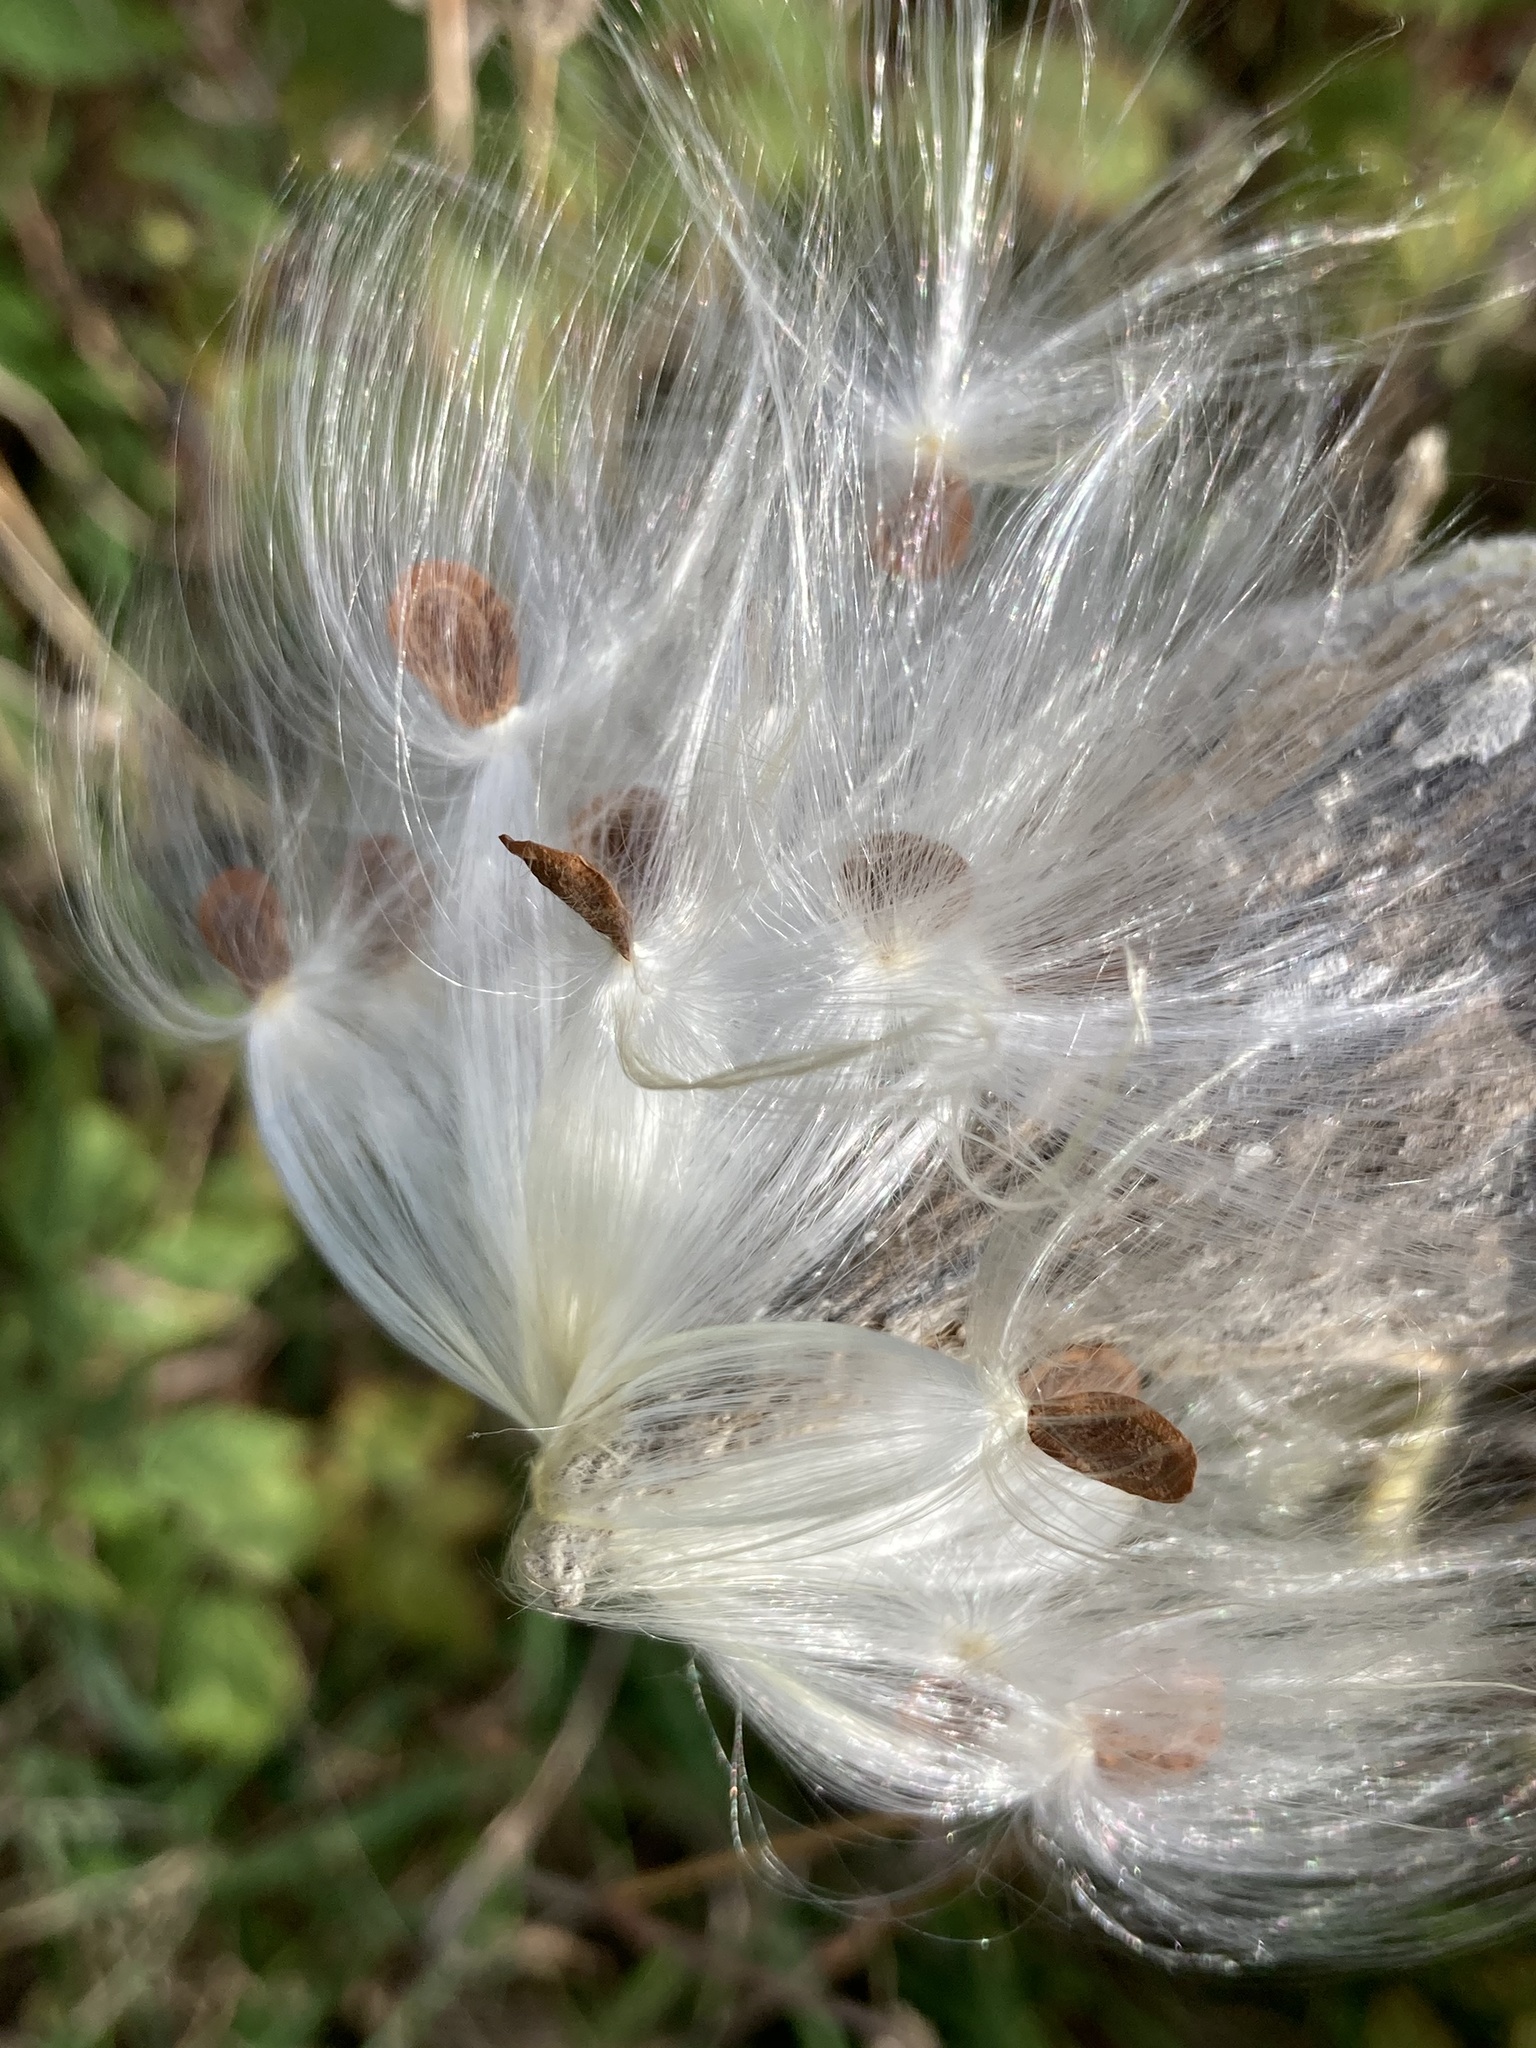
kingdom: Plantae
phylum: Tracheophyta
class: Magnoliopsida
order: Gentianales
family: Apocynaceae
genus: Asclepias
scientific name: Asclepias syriaca
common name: Common milkweed
